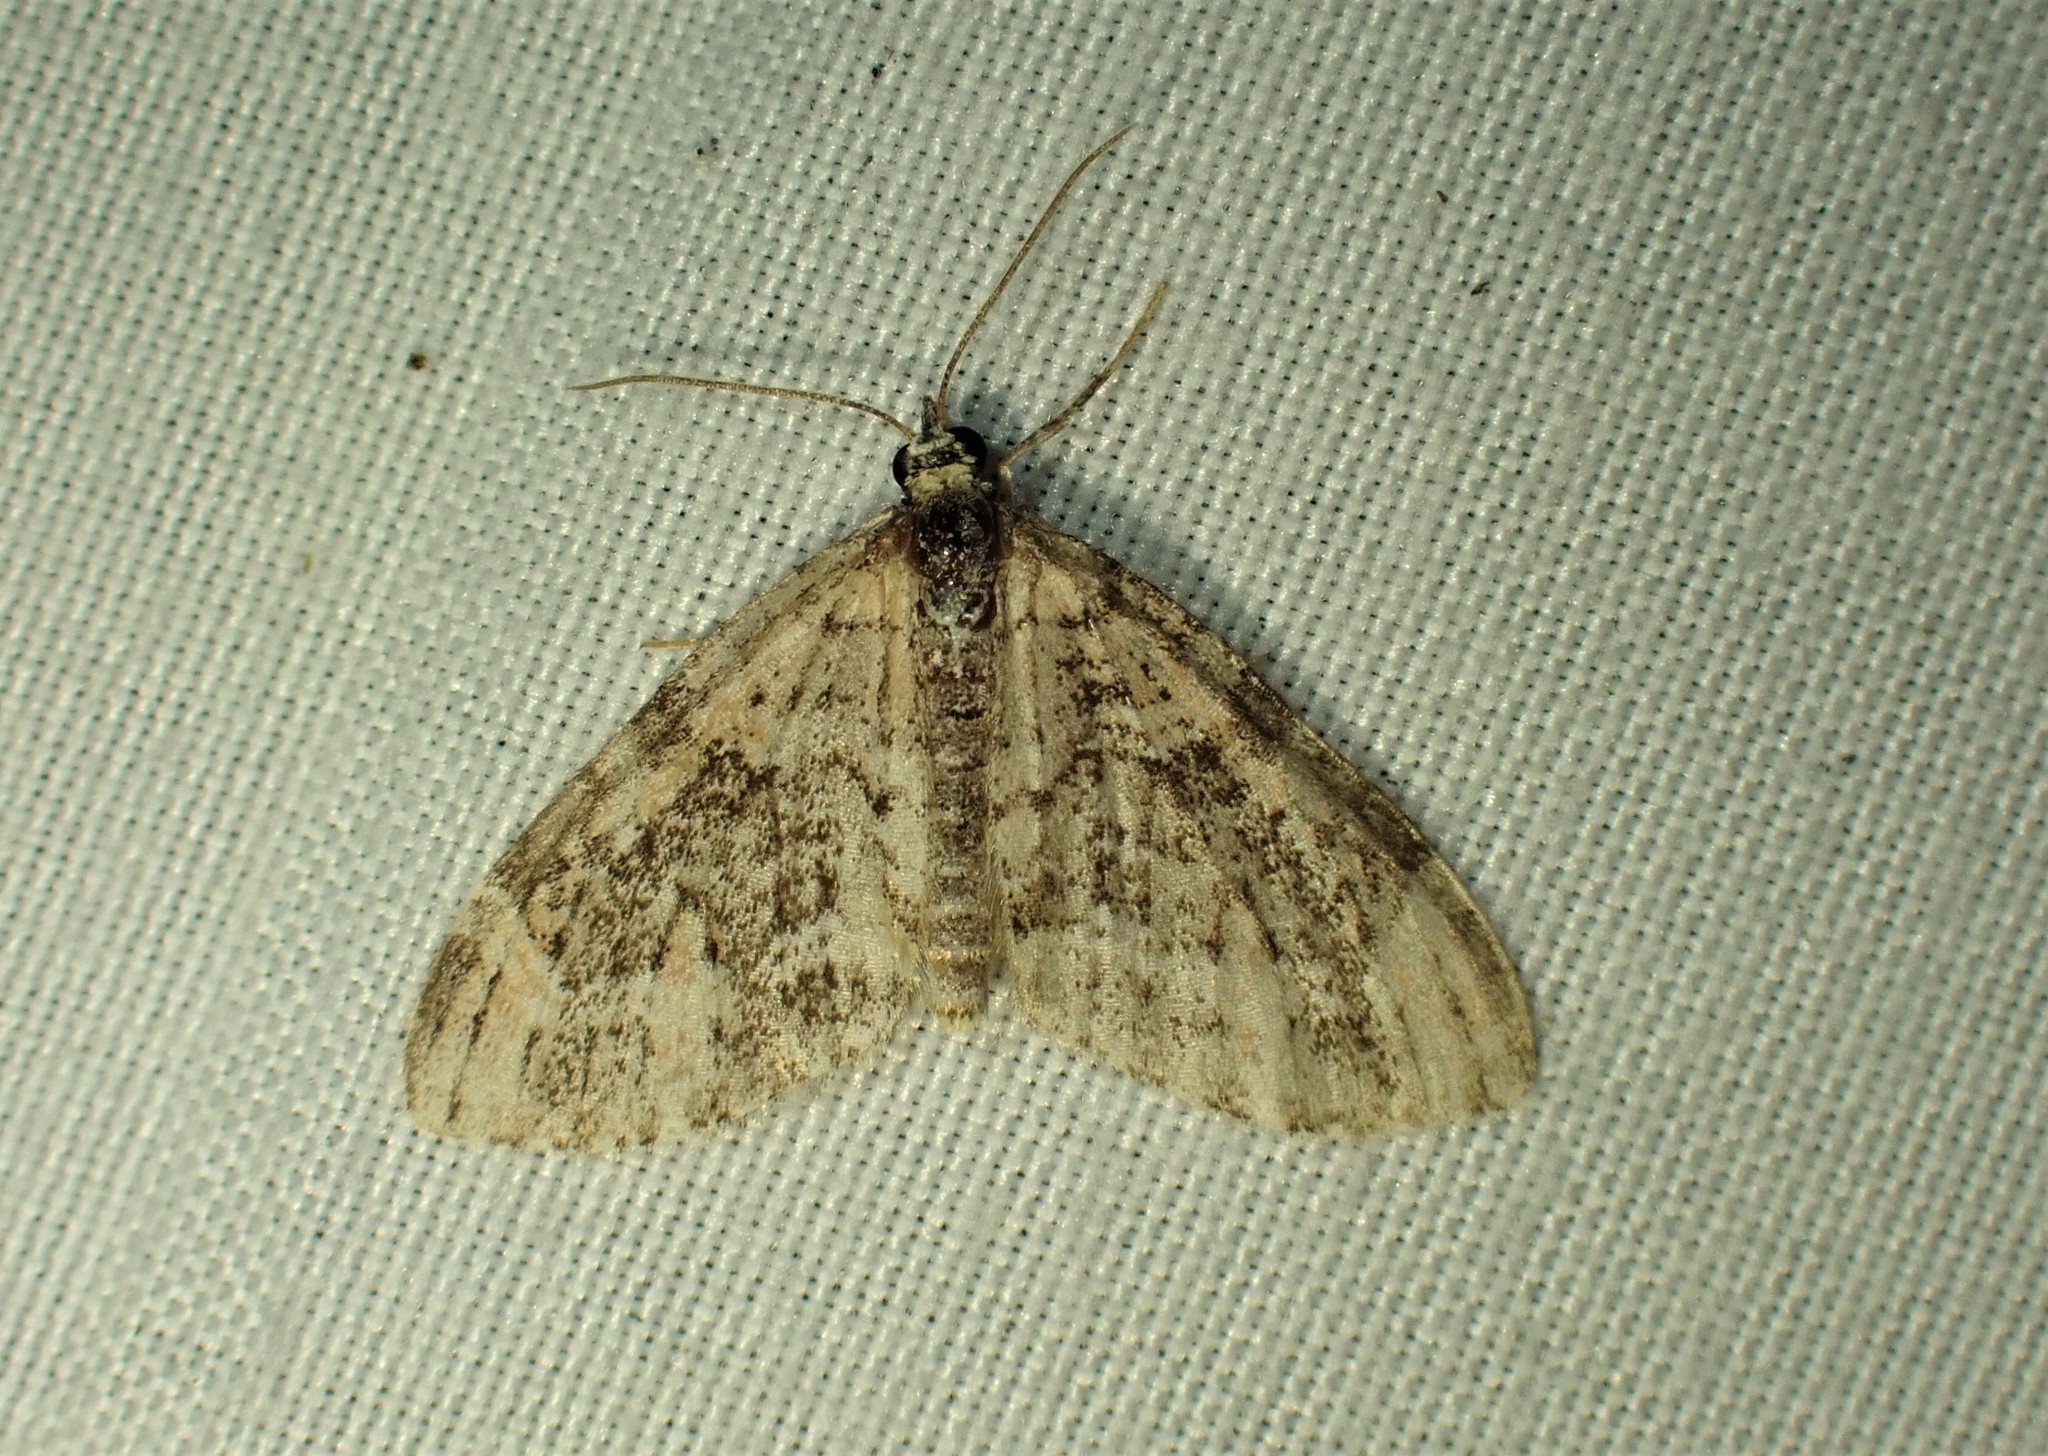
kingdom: Animalia
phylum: Arthropoda
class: Insecta
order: Lepidoptera
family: Geometridae
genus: Acasis
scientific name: Acasis viridata
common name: Olive-and-black carpet moth
